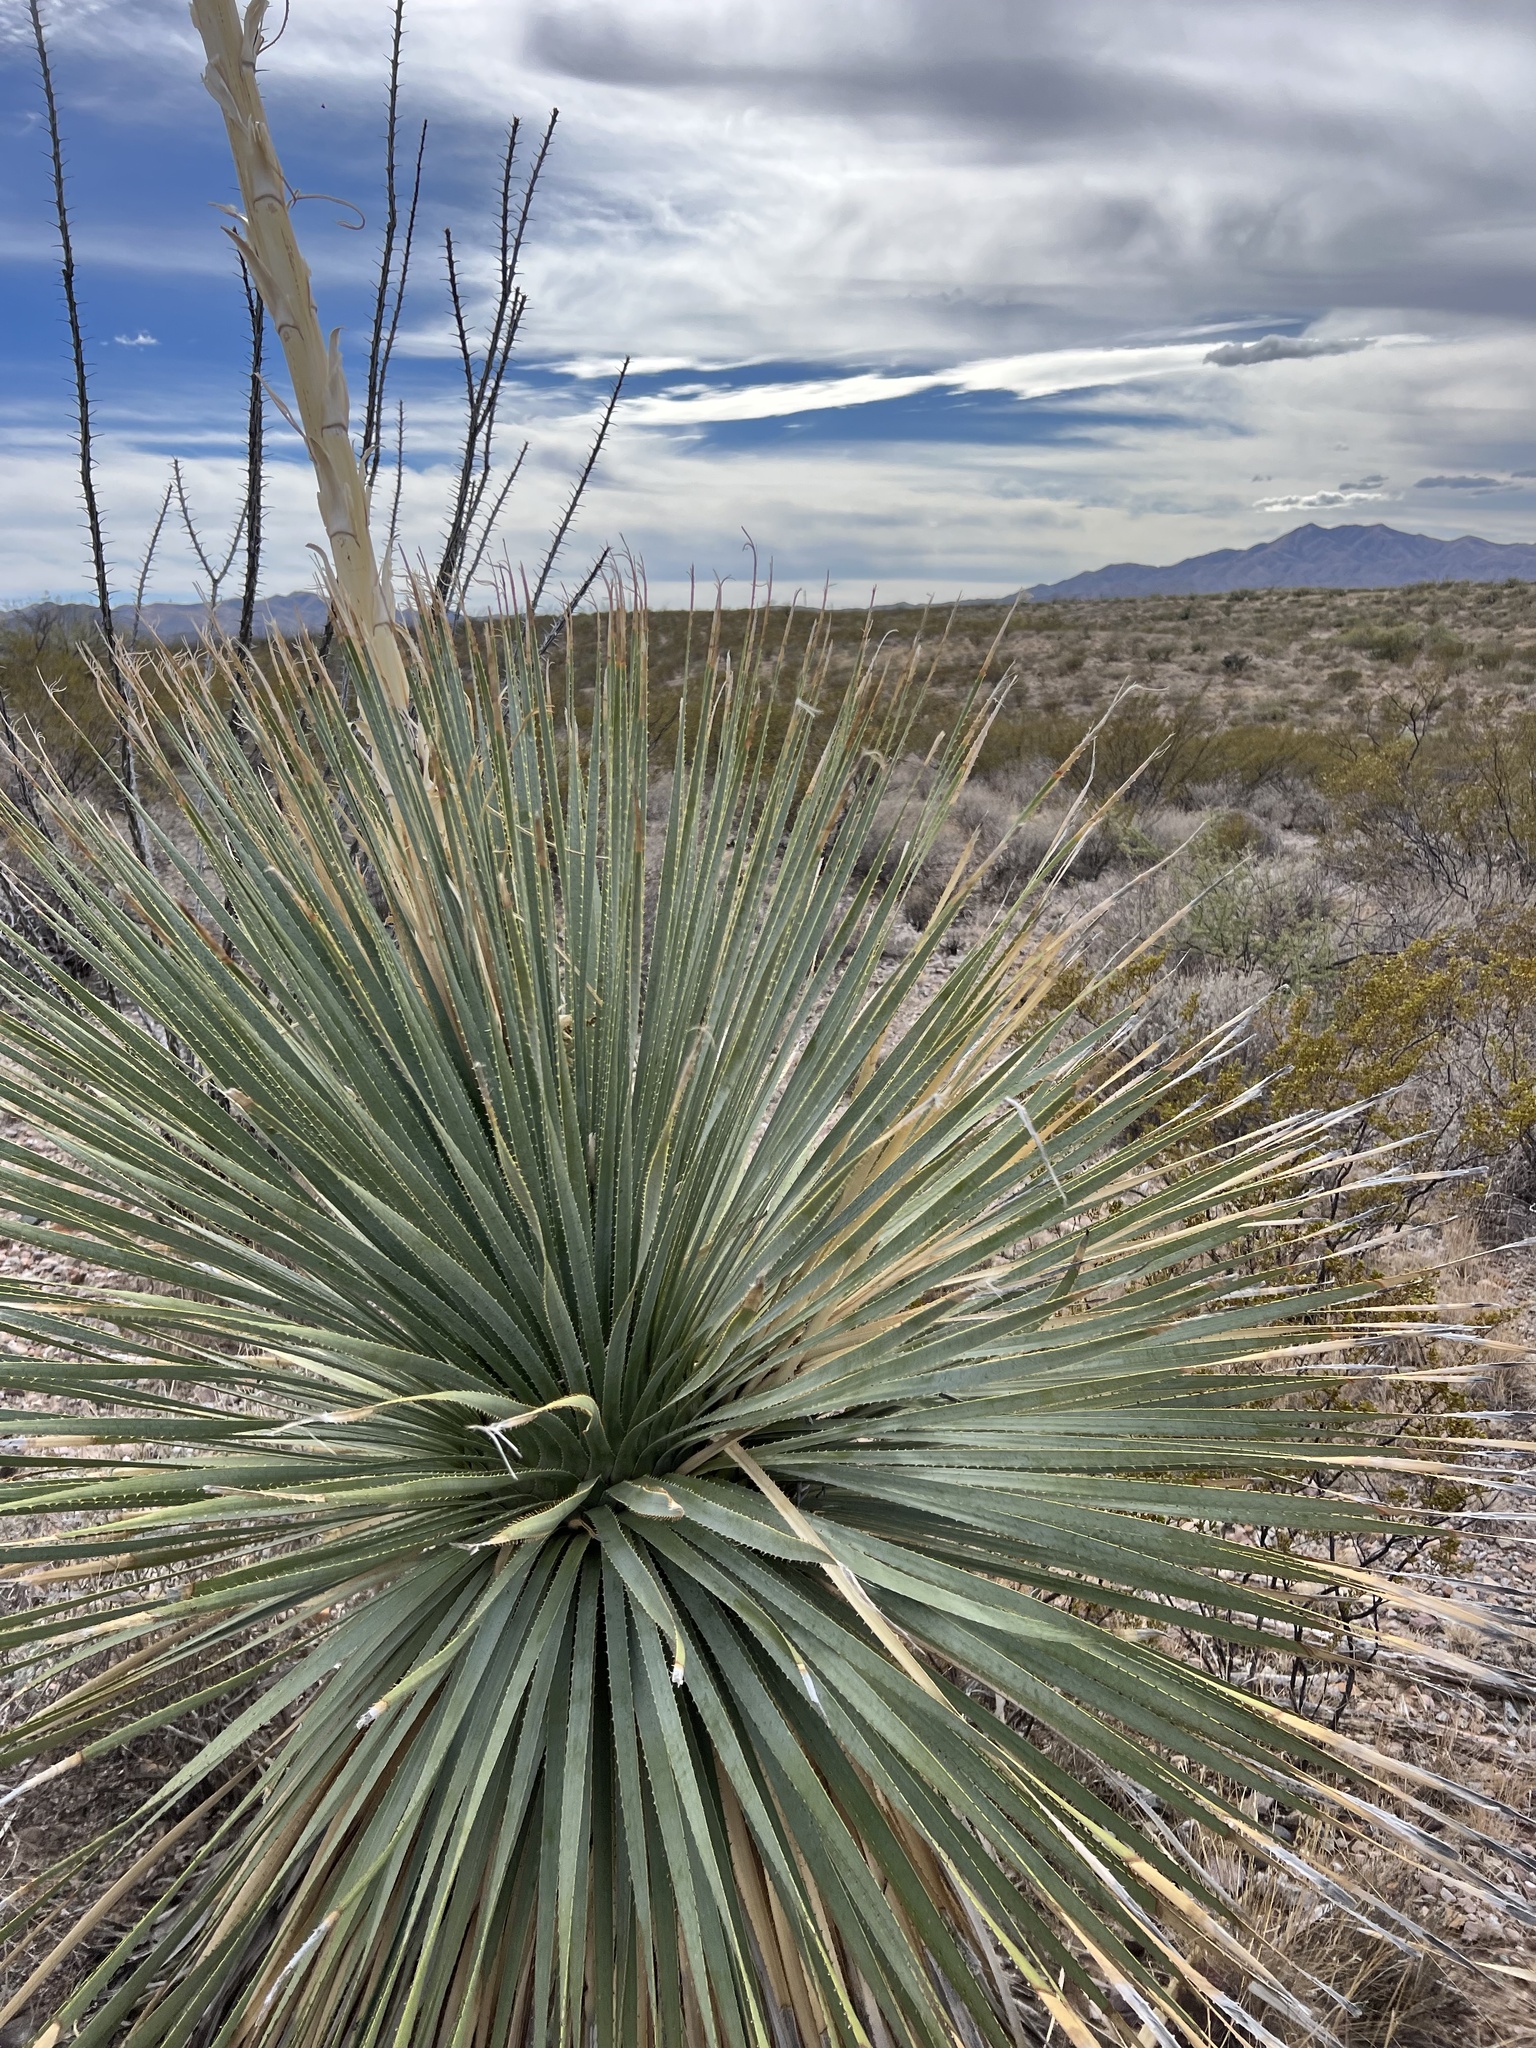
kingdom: Plantae
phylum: Tracheophyta
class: Liliopsida
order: Asparagales
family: Asparagaceae
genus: Dasylirion
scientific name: Dasylirion wheeleri
